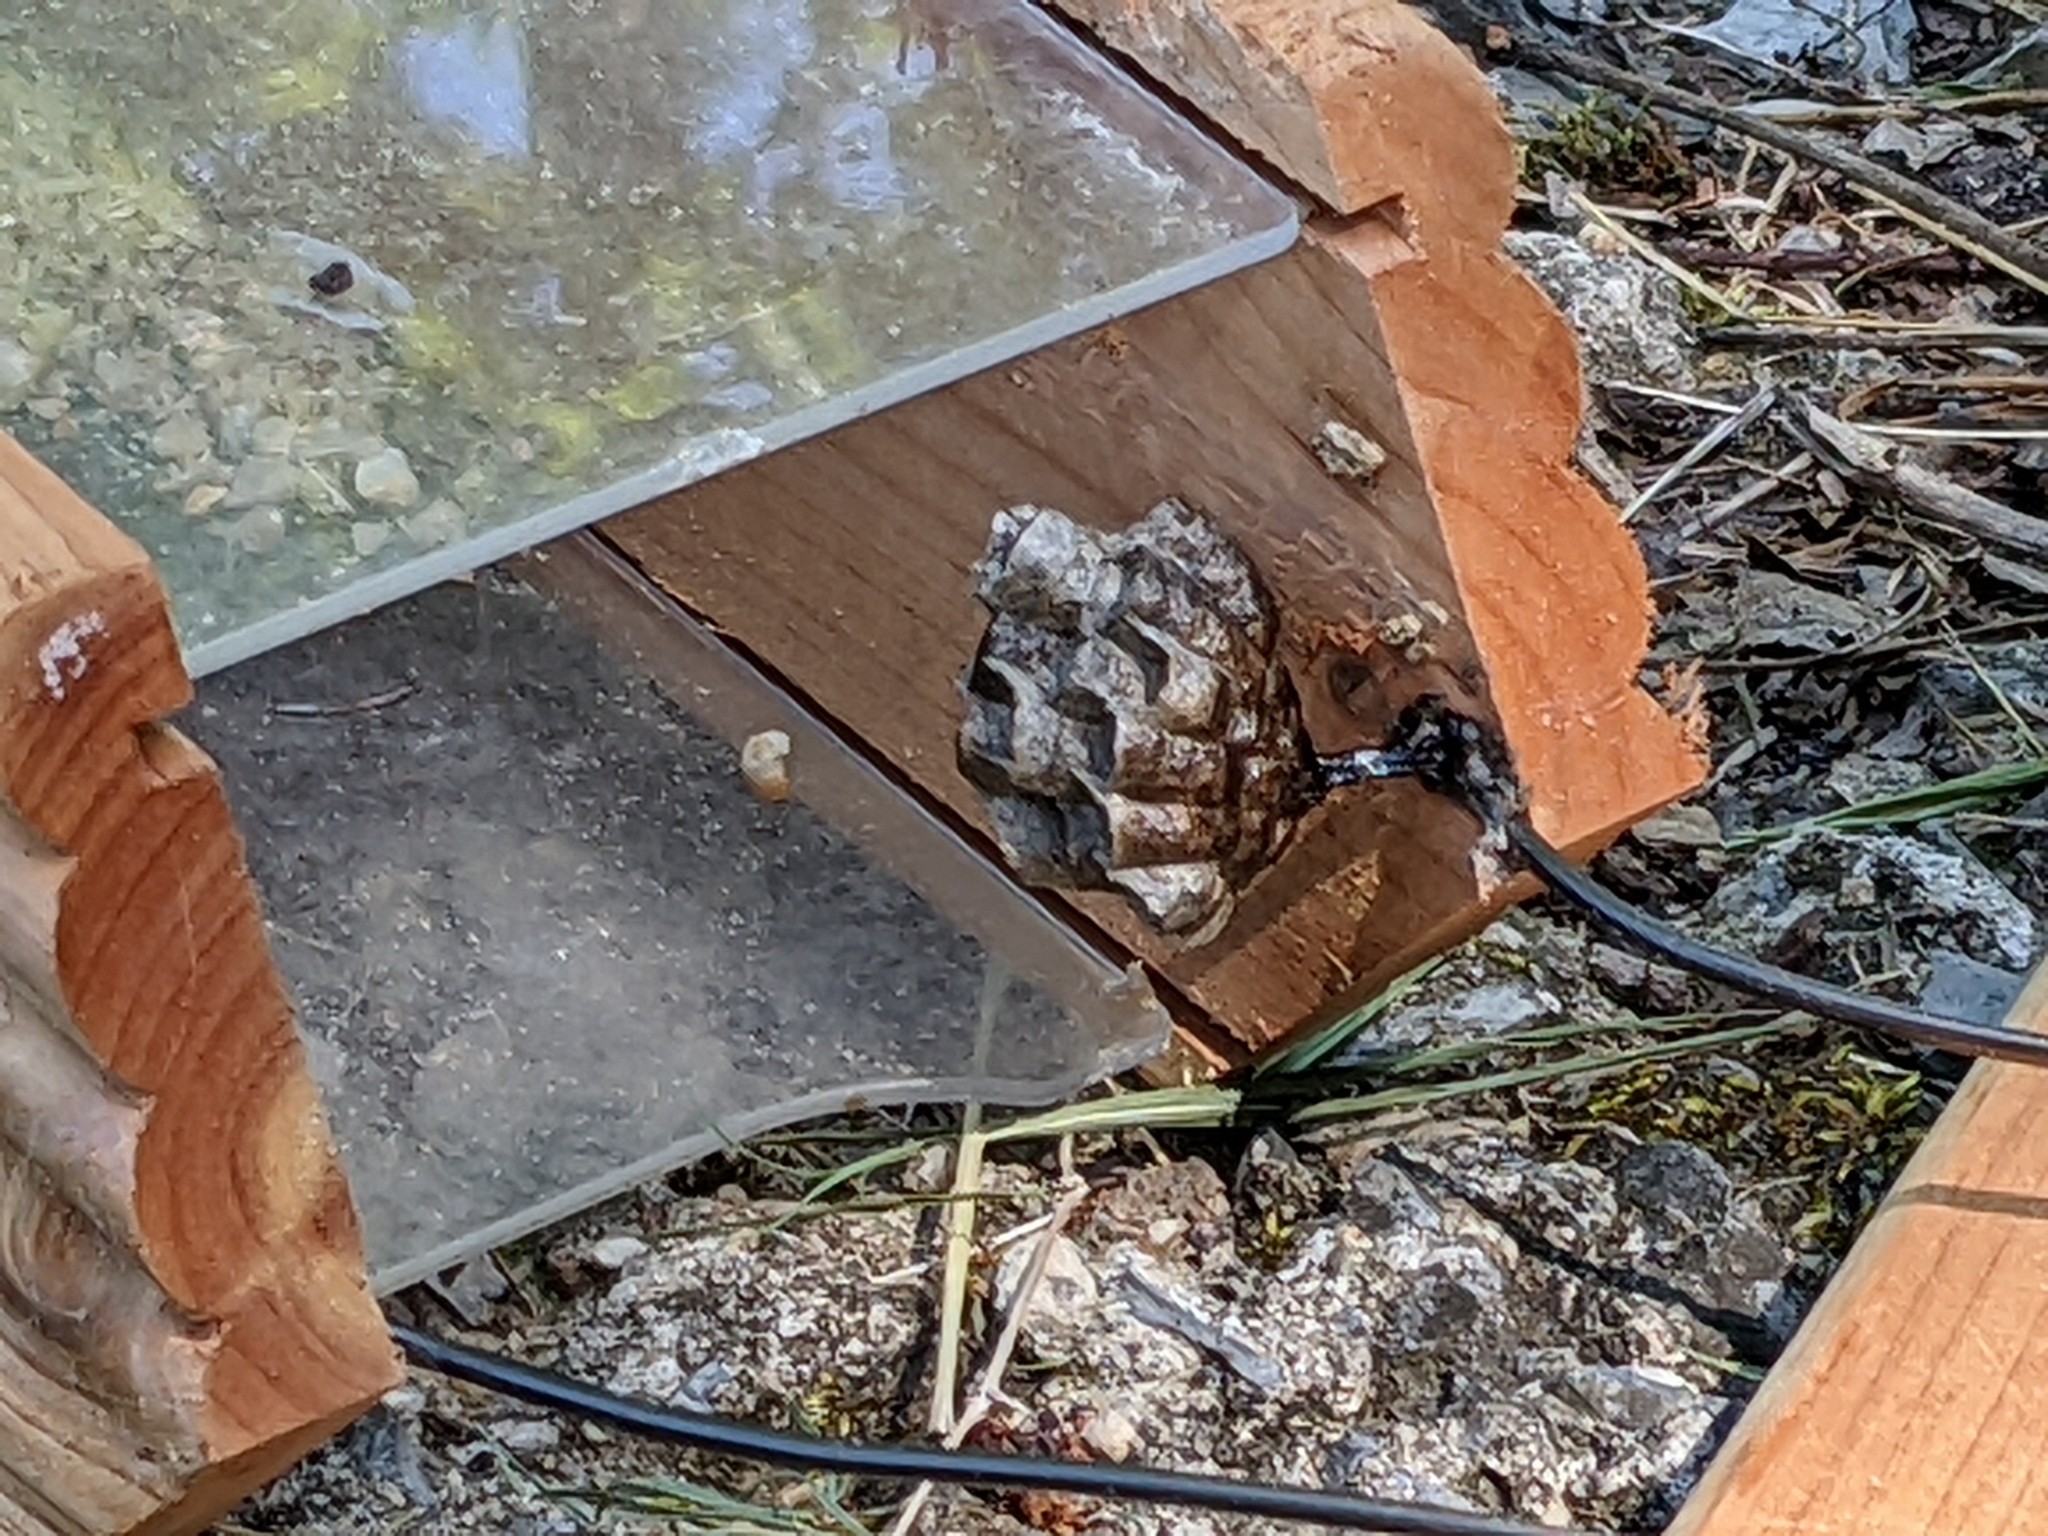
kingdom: Animalia
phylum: Arthropoda
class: Insecta
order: Hymenoptera
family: Eumenidae
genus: Polistes
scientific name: Polistes parametricus
